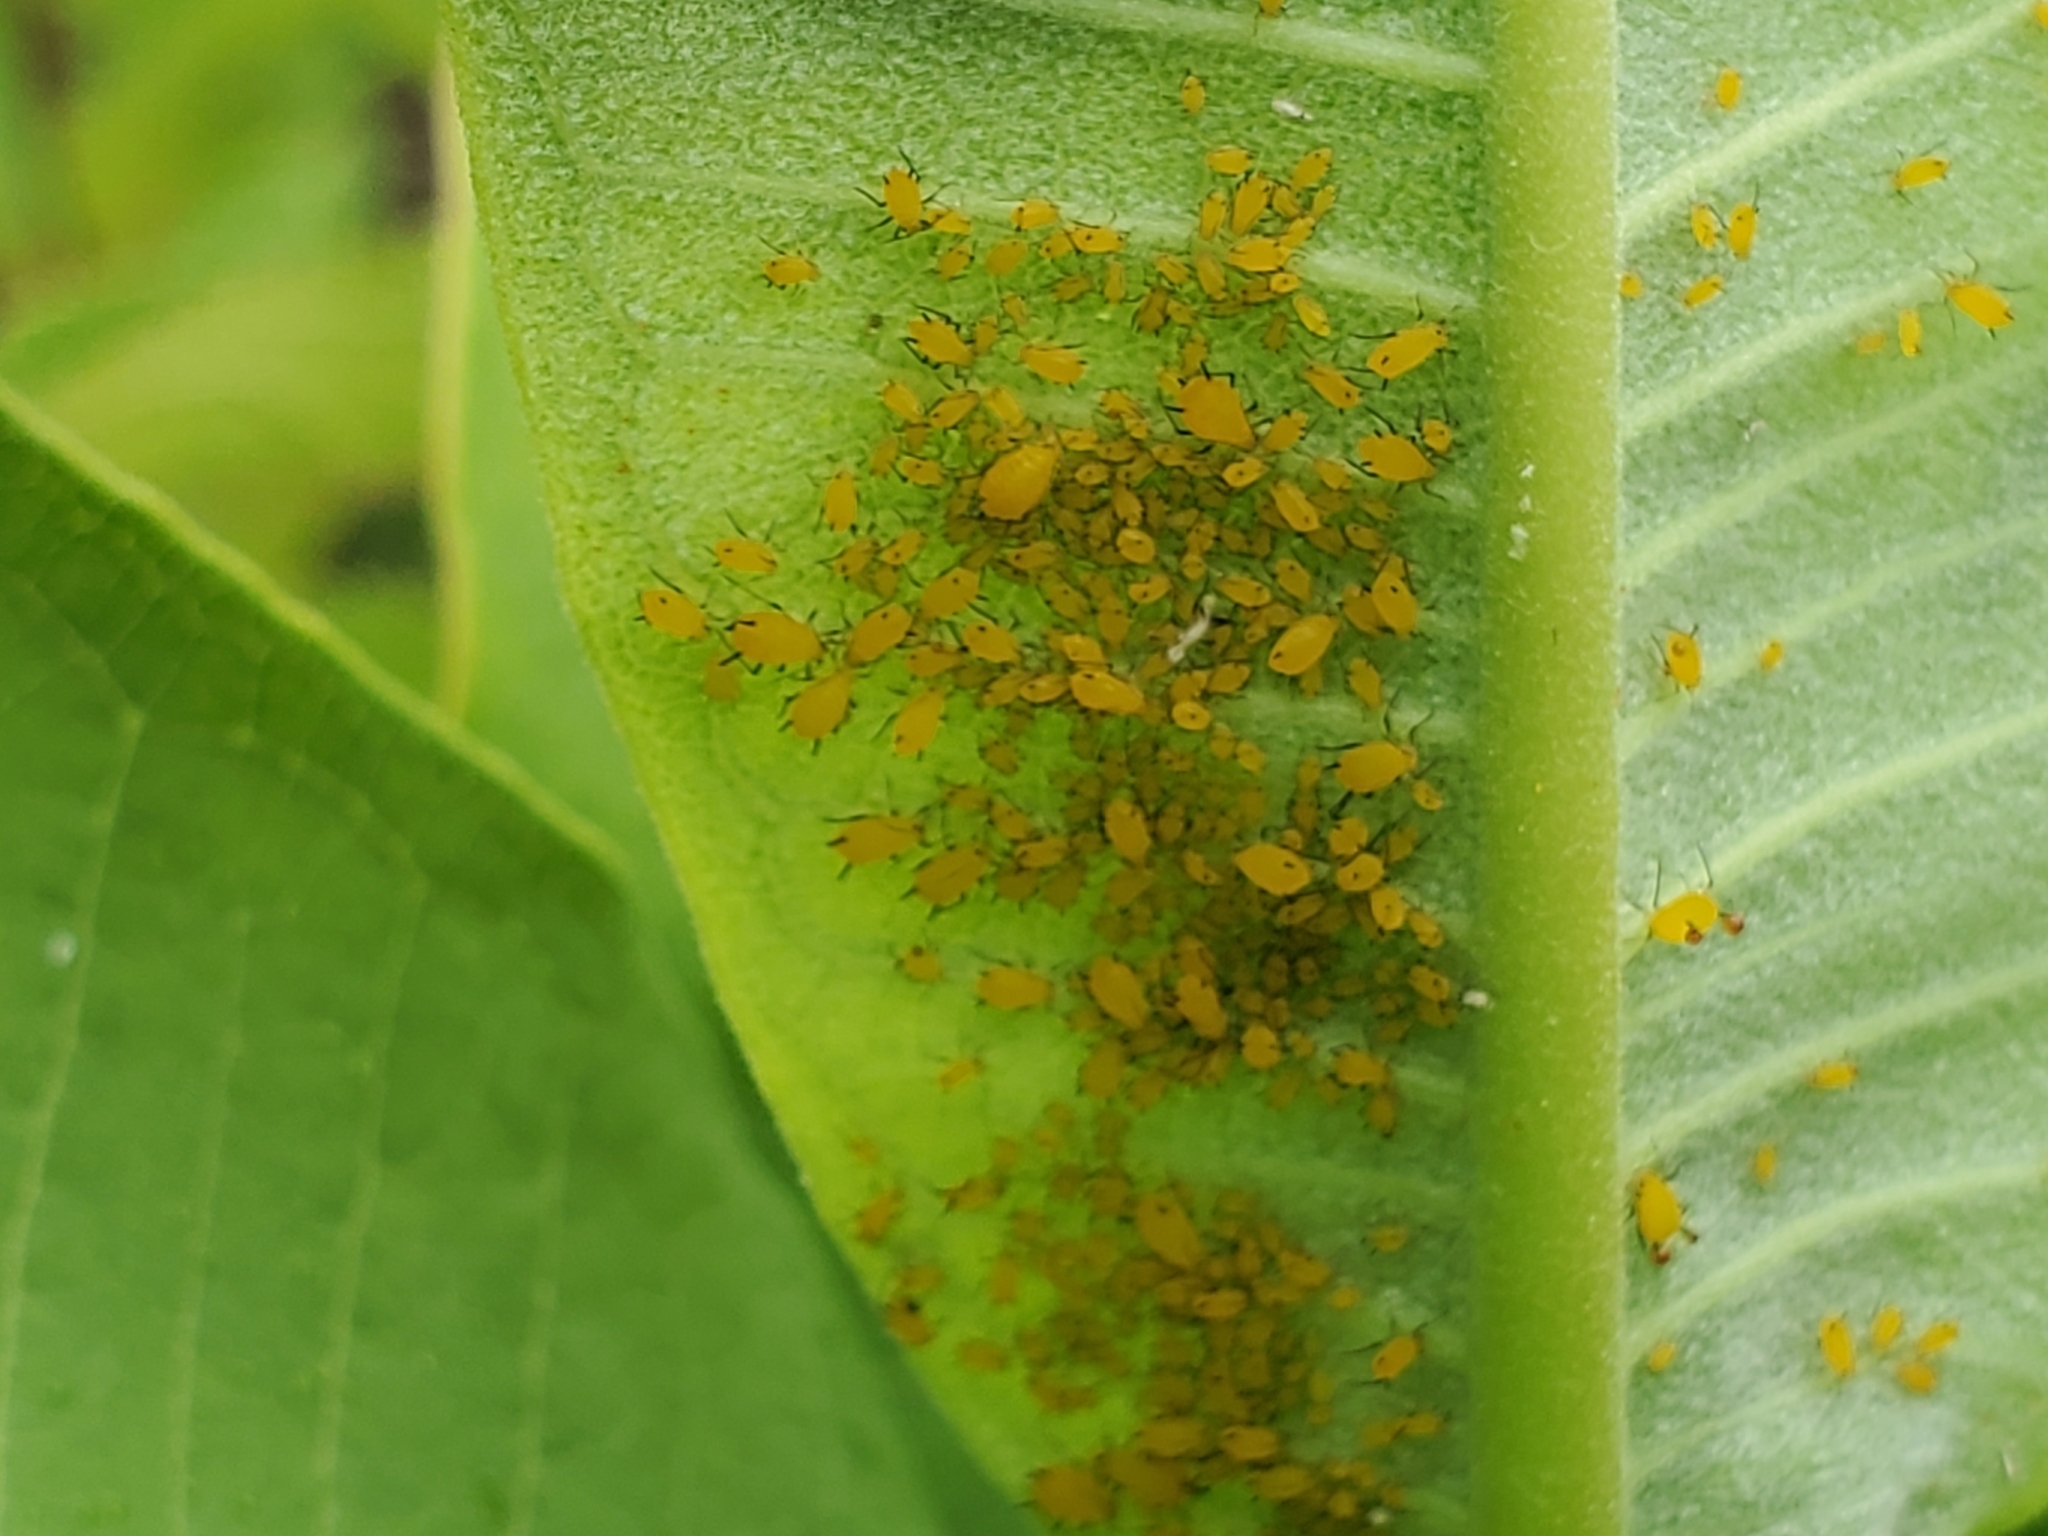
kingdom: Animalia
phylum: Arthropoda
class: Insecta
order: Hemiptera
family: Aphididae
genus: Aphis
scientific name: Aphis nerii
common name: Oleander aphid
